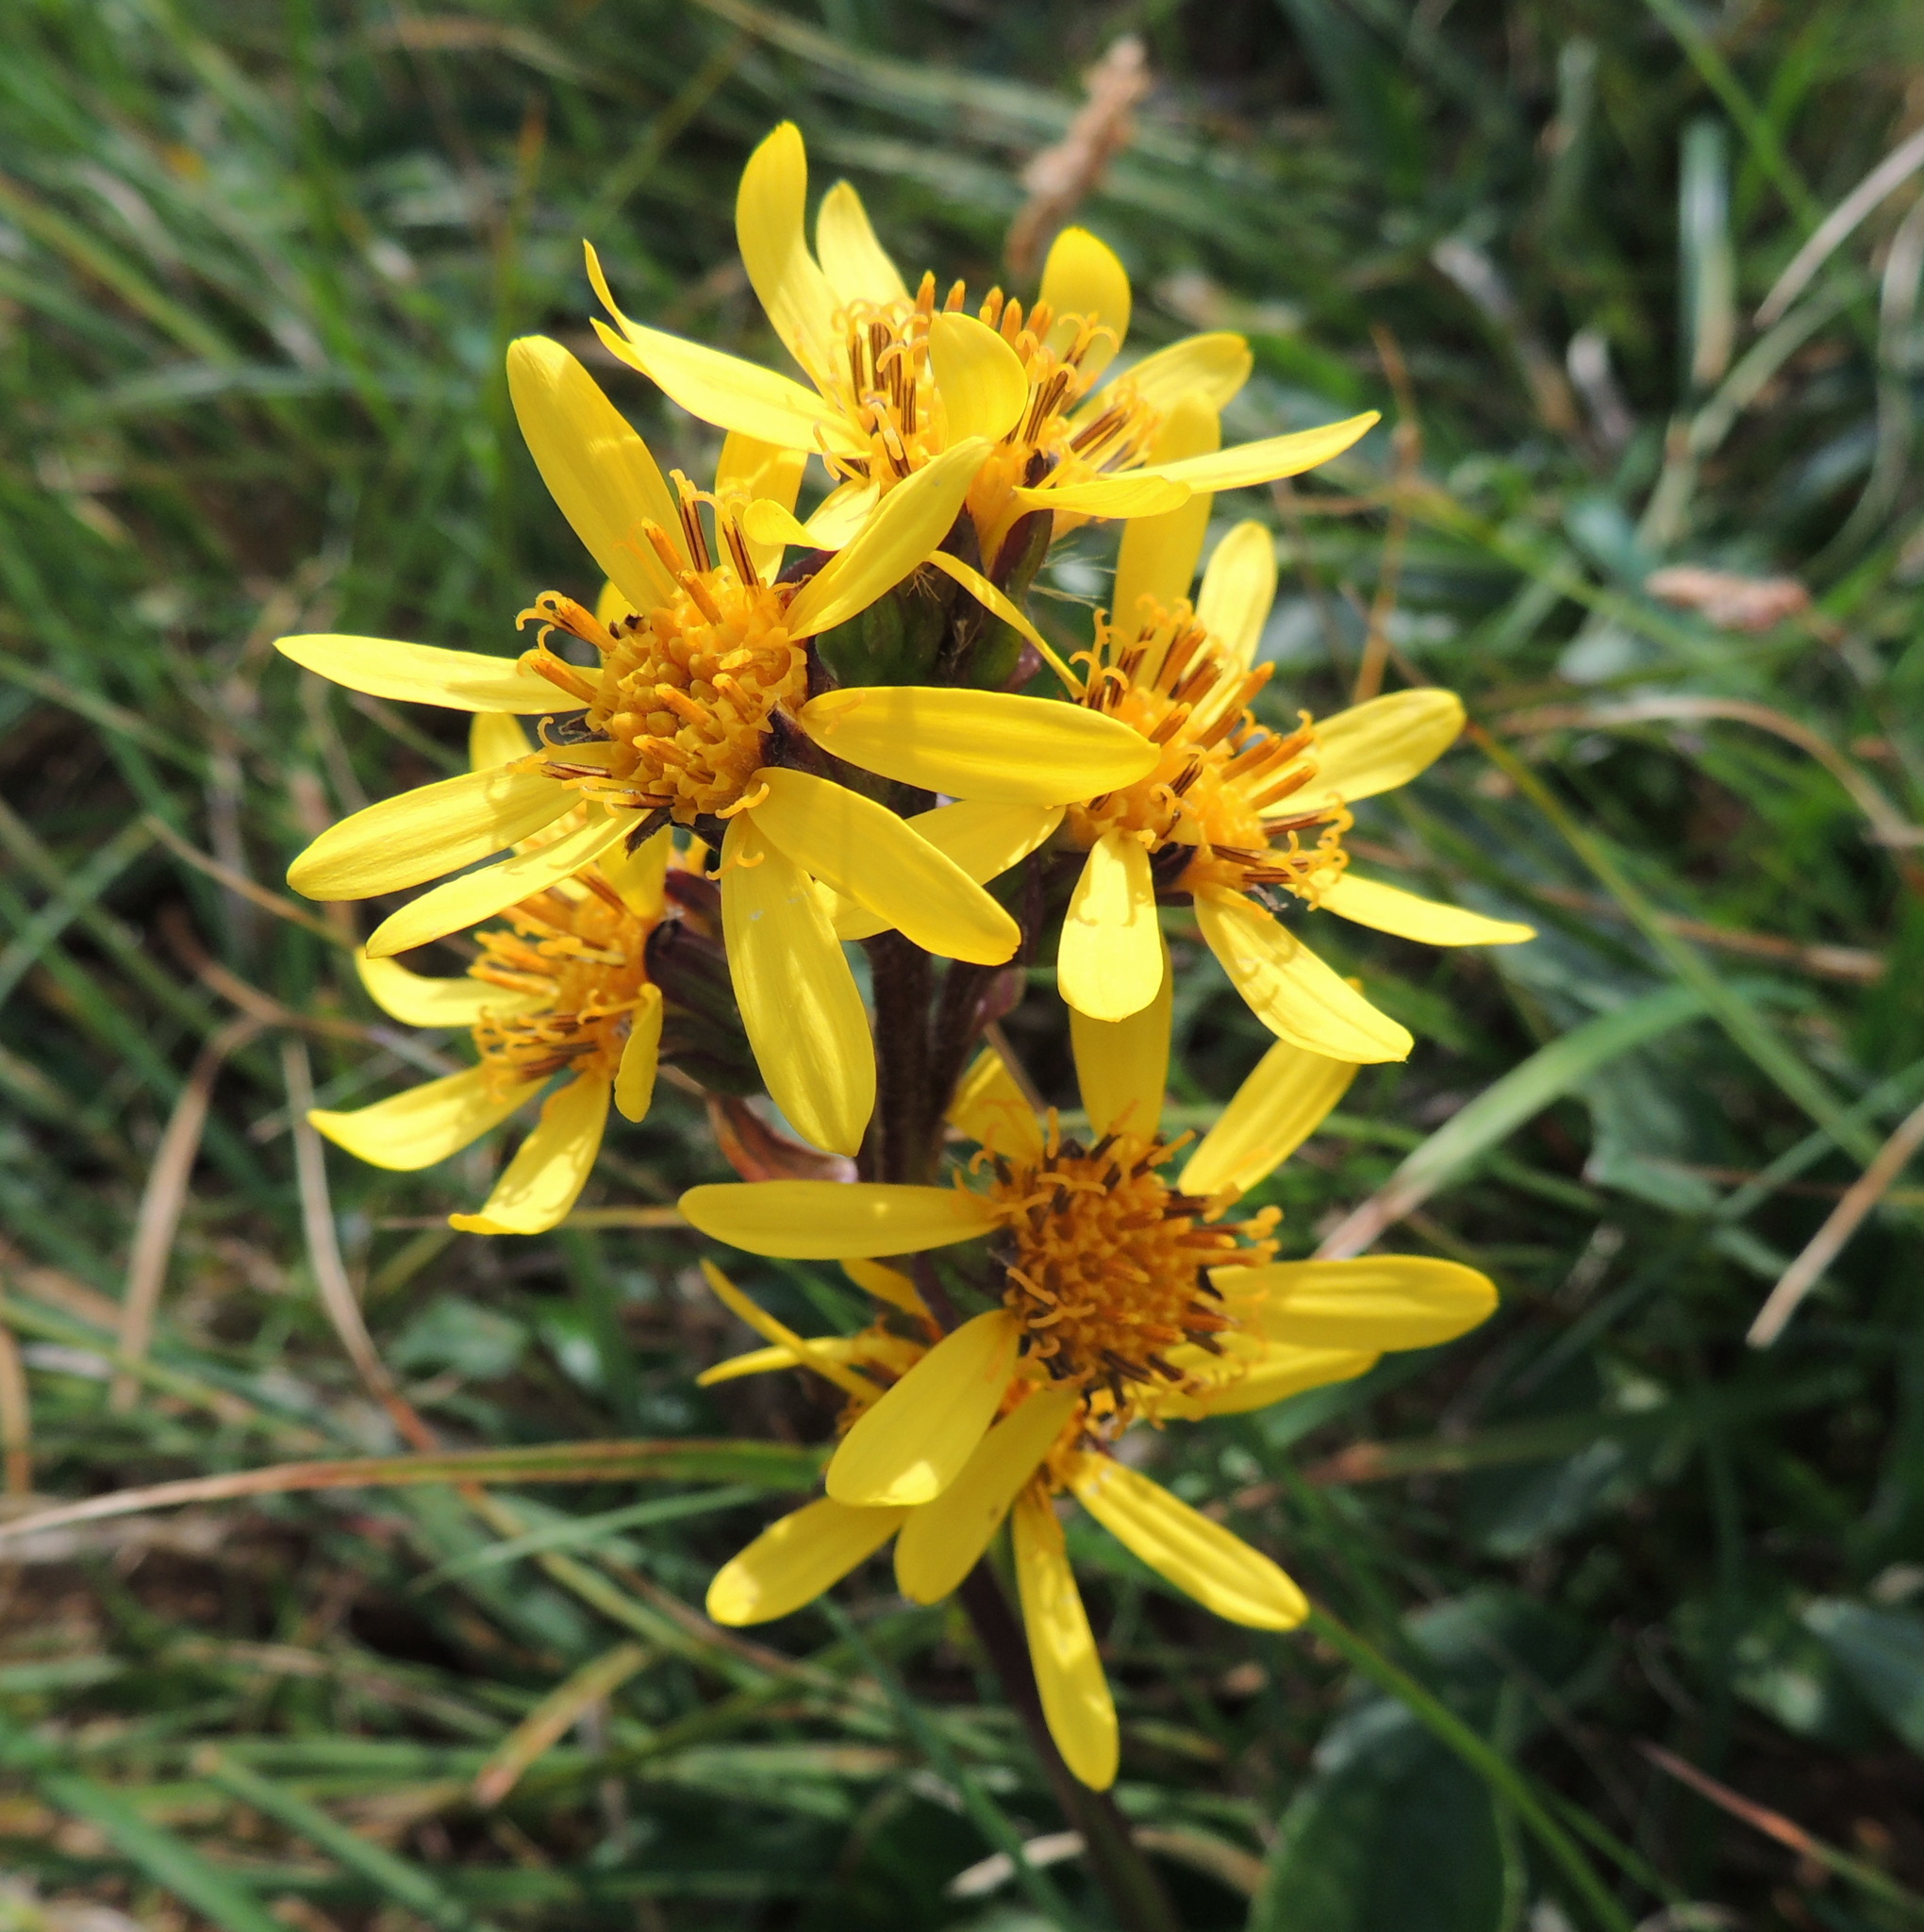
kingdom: Plantae
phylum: Tracheophyta
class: Magnoliopsida
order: Asterales
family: Asteraceae
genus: Ligularia
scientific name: Ligularia sibirica
